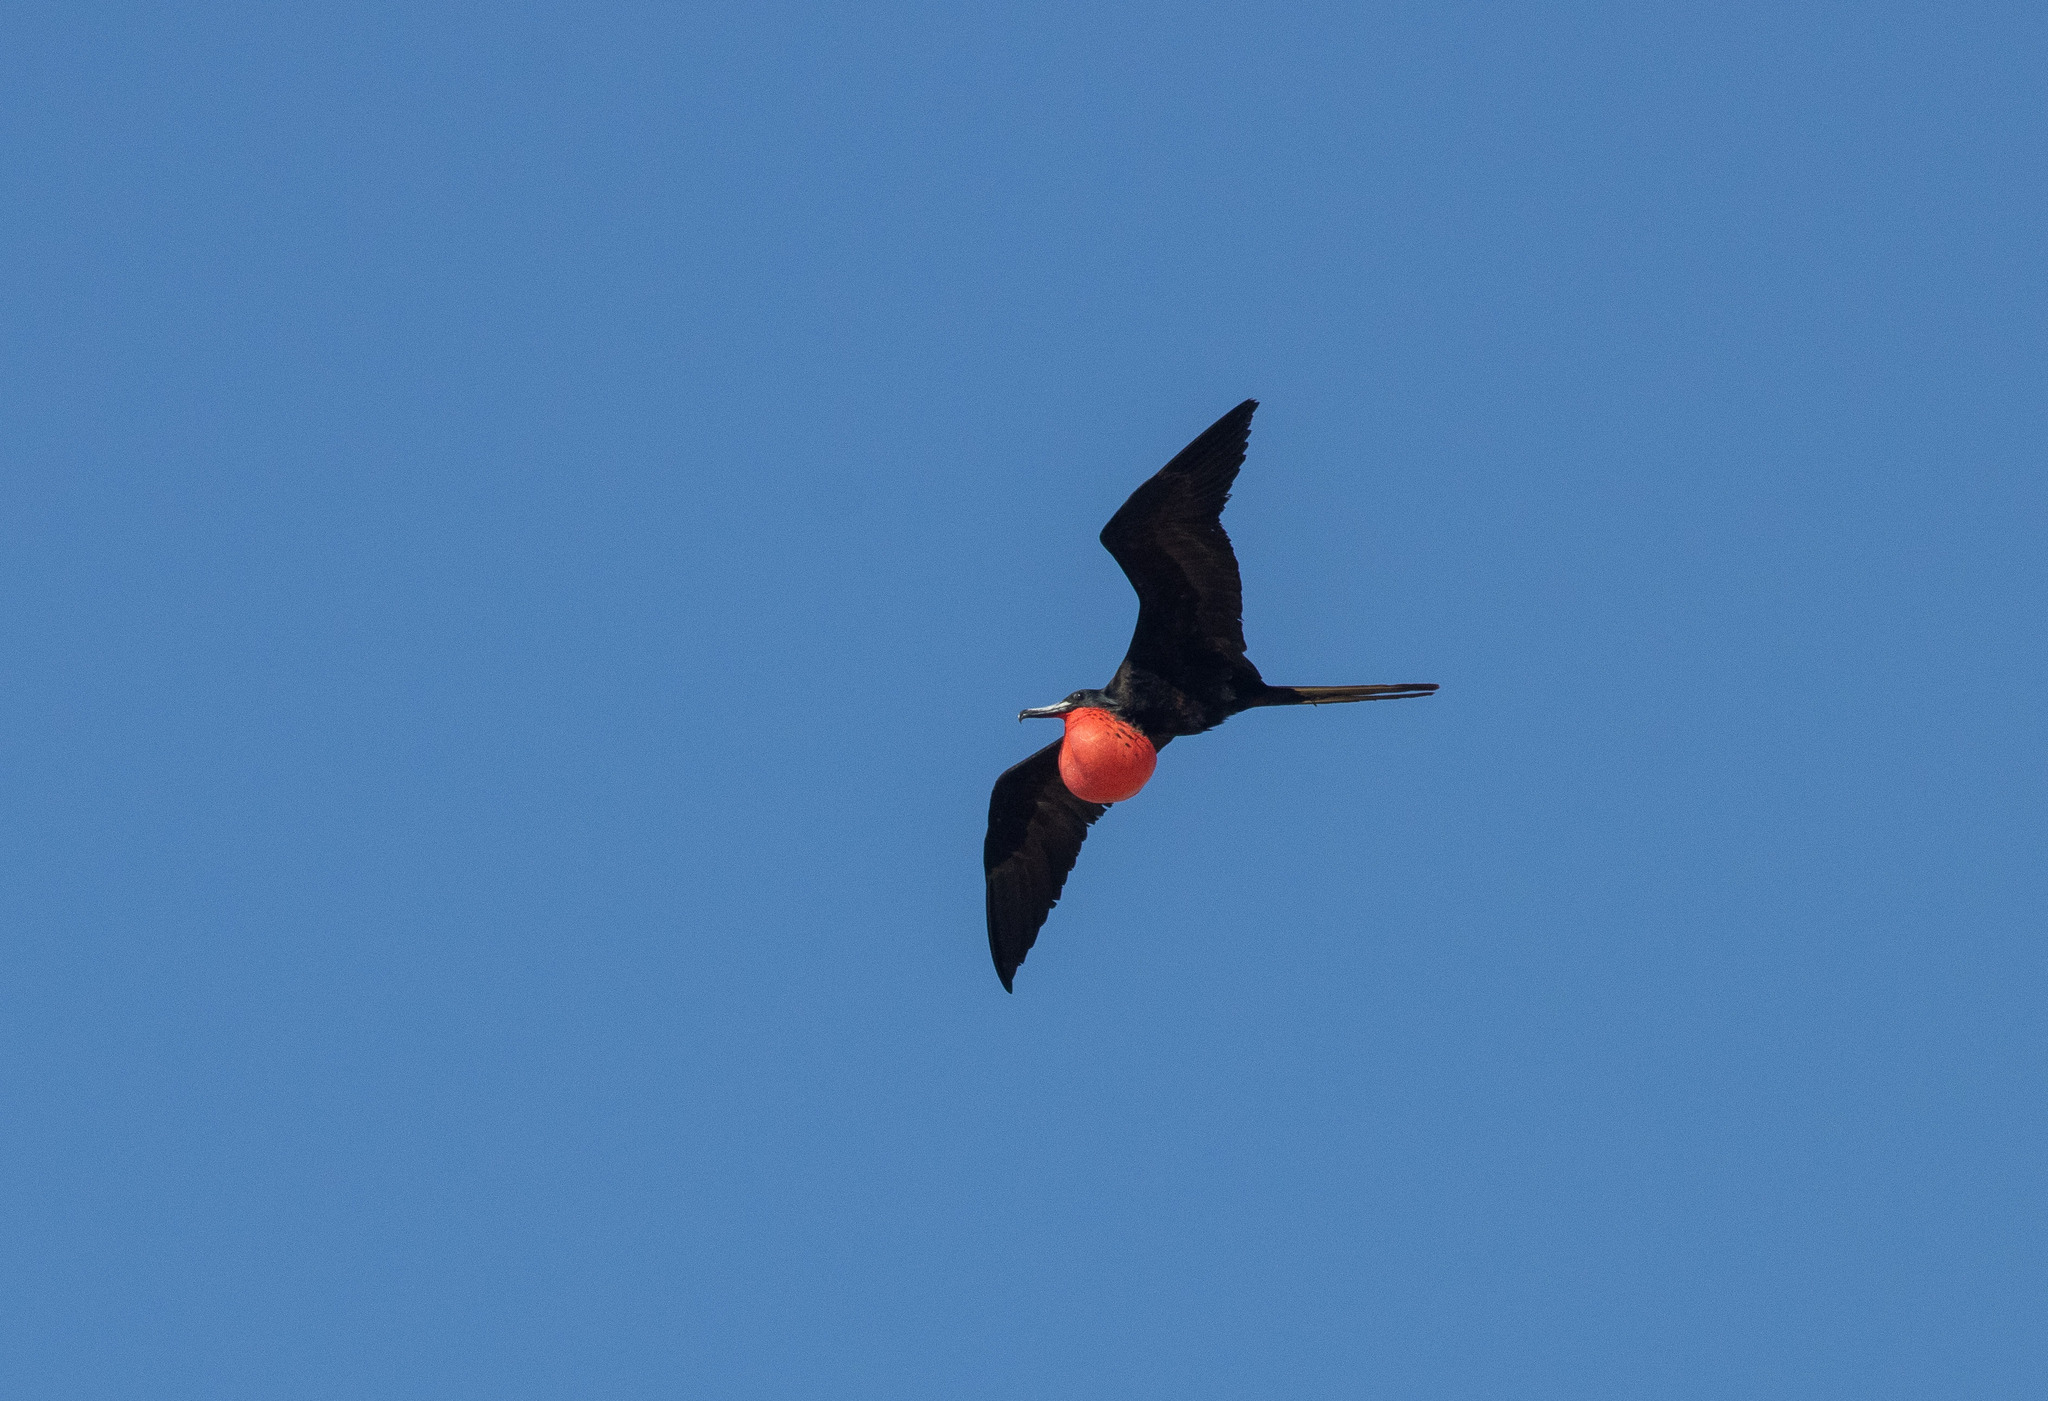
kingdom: Animalia
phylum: Chordata
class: Aves
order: Suliformes
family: Fregatidae
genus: Fregata
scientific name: Fregata magnificens
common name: Magnificent frigatebird
